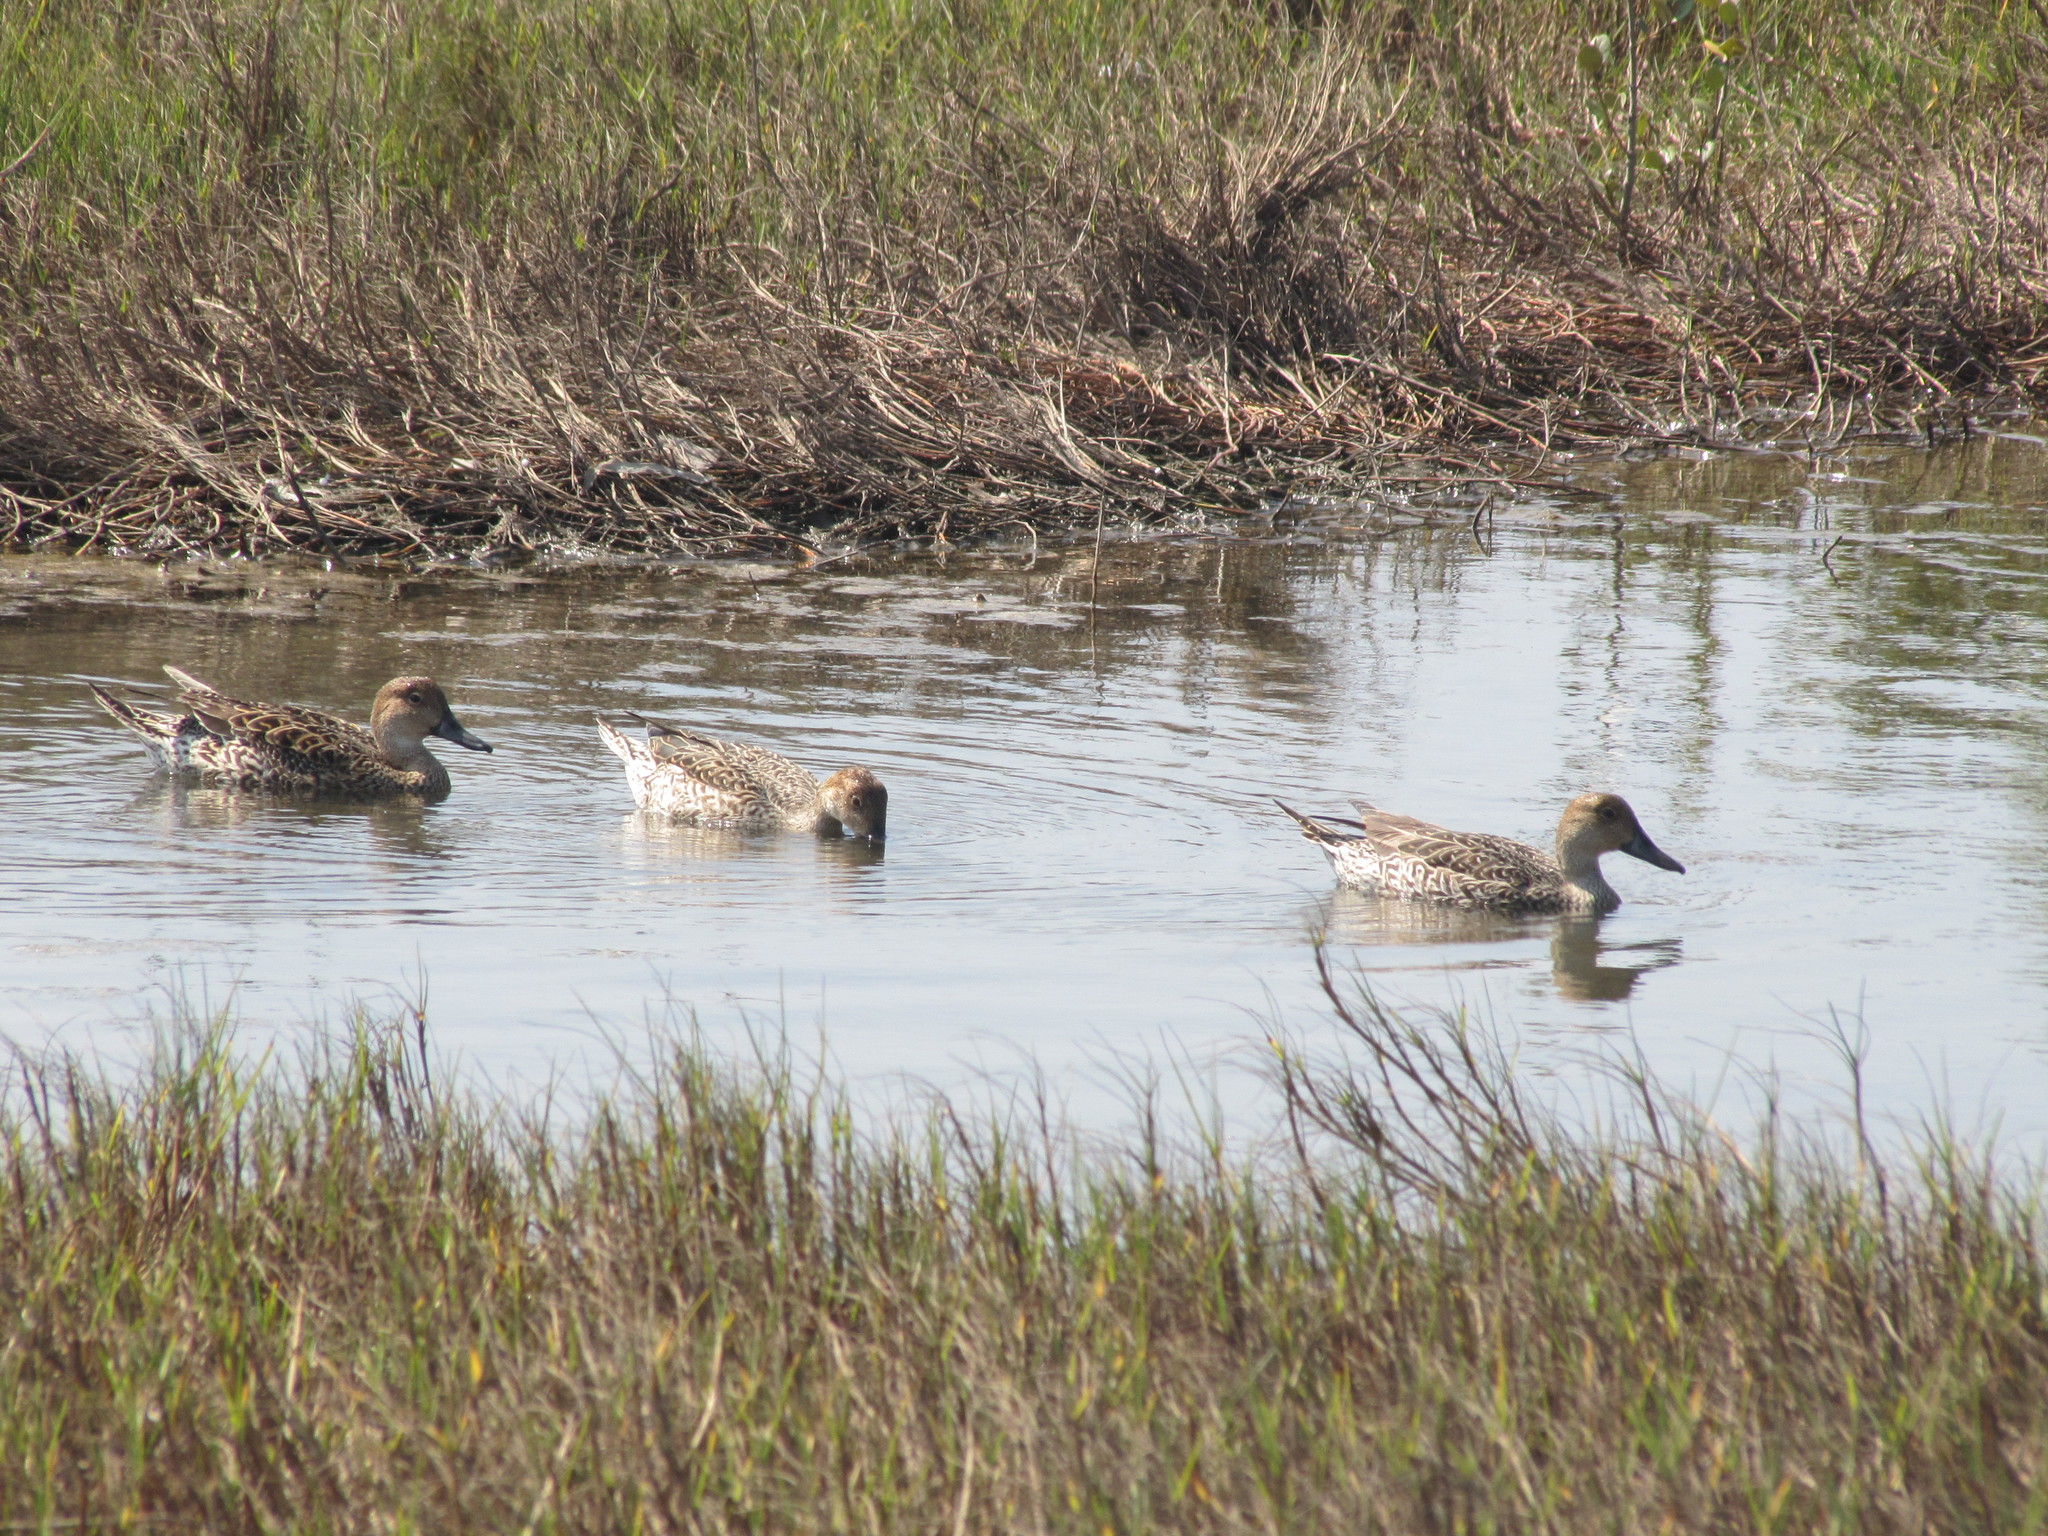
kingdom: Animalia
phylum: Chordata
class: Aves
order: Anseriformes
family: Anatidae
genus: Anas
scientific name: Anas acuta
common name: Northern pintail
